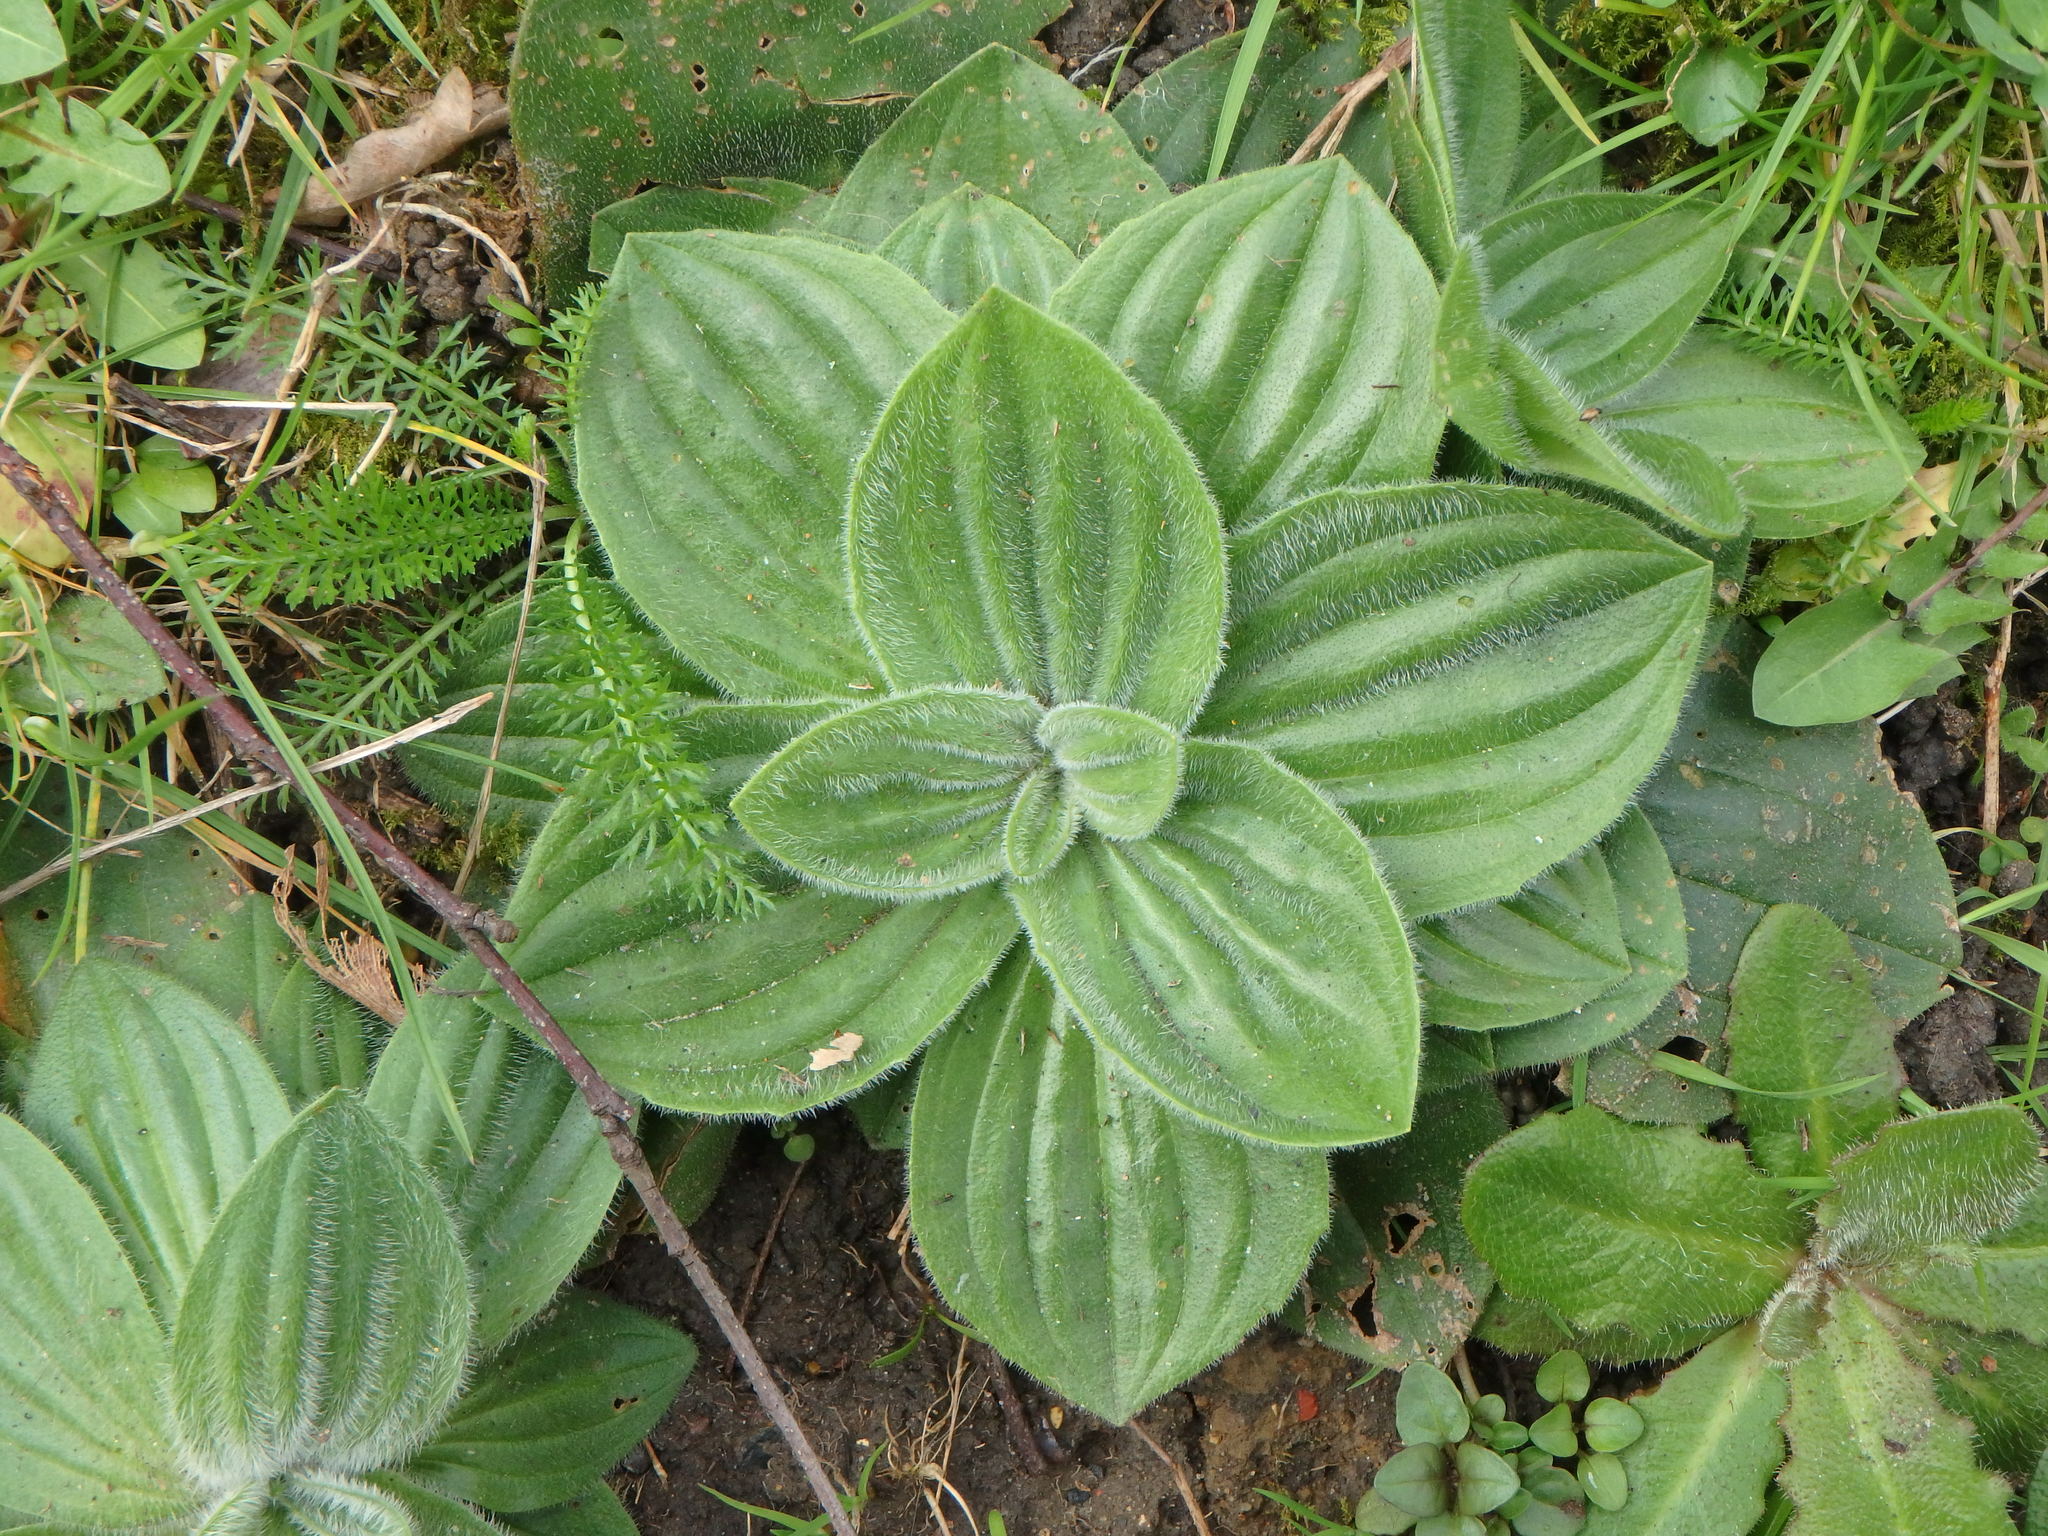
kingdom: Plantae
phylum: Tracheophyta
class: Magnoliopsida
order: Lamiales
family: Plantaginaceae
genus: Plantago
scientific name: Plantago media
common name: Hoary plantain
